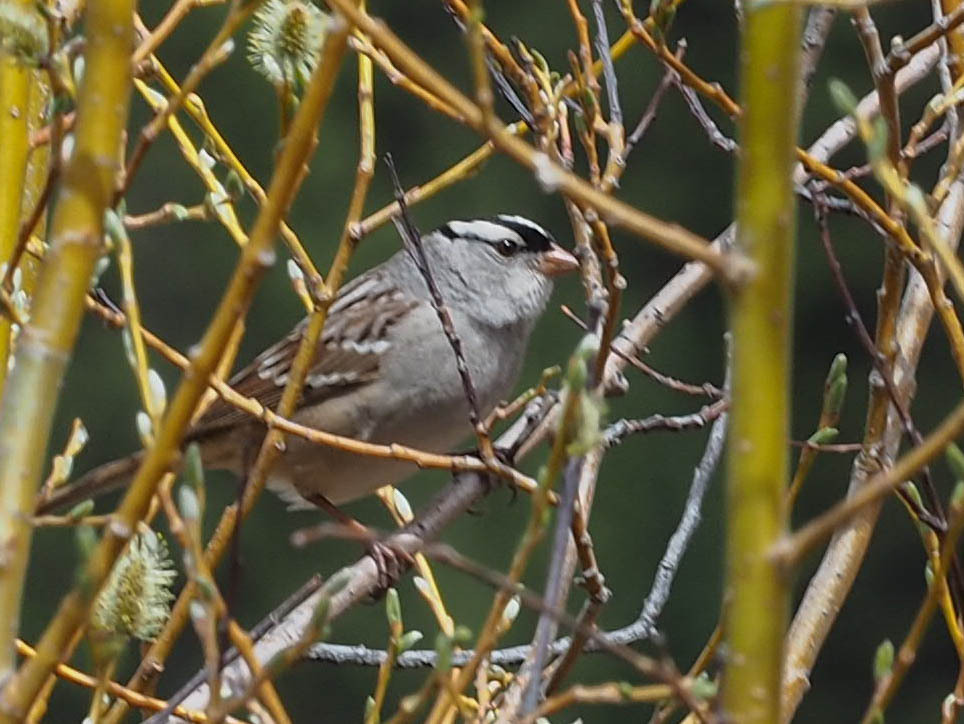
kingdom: Animalia
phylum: Chordata
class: Aves
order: Passeriformes
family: Passerellidae
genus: Zonotrichia
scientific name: Zonotrichia leucophrys
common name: White-crowned sparrow
